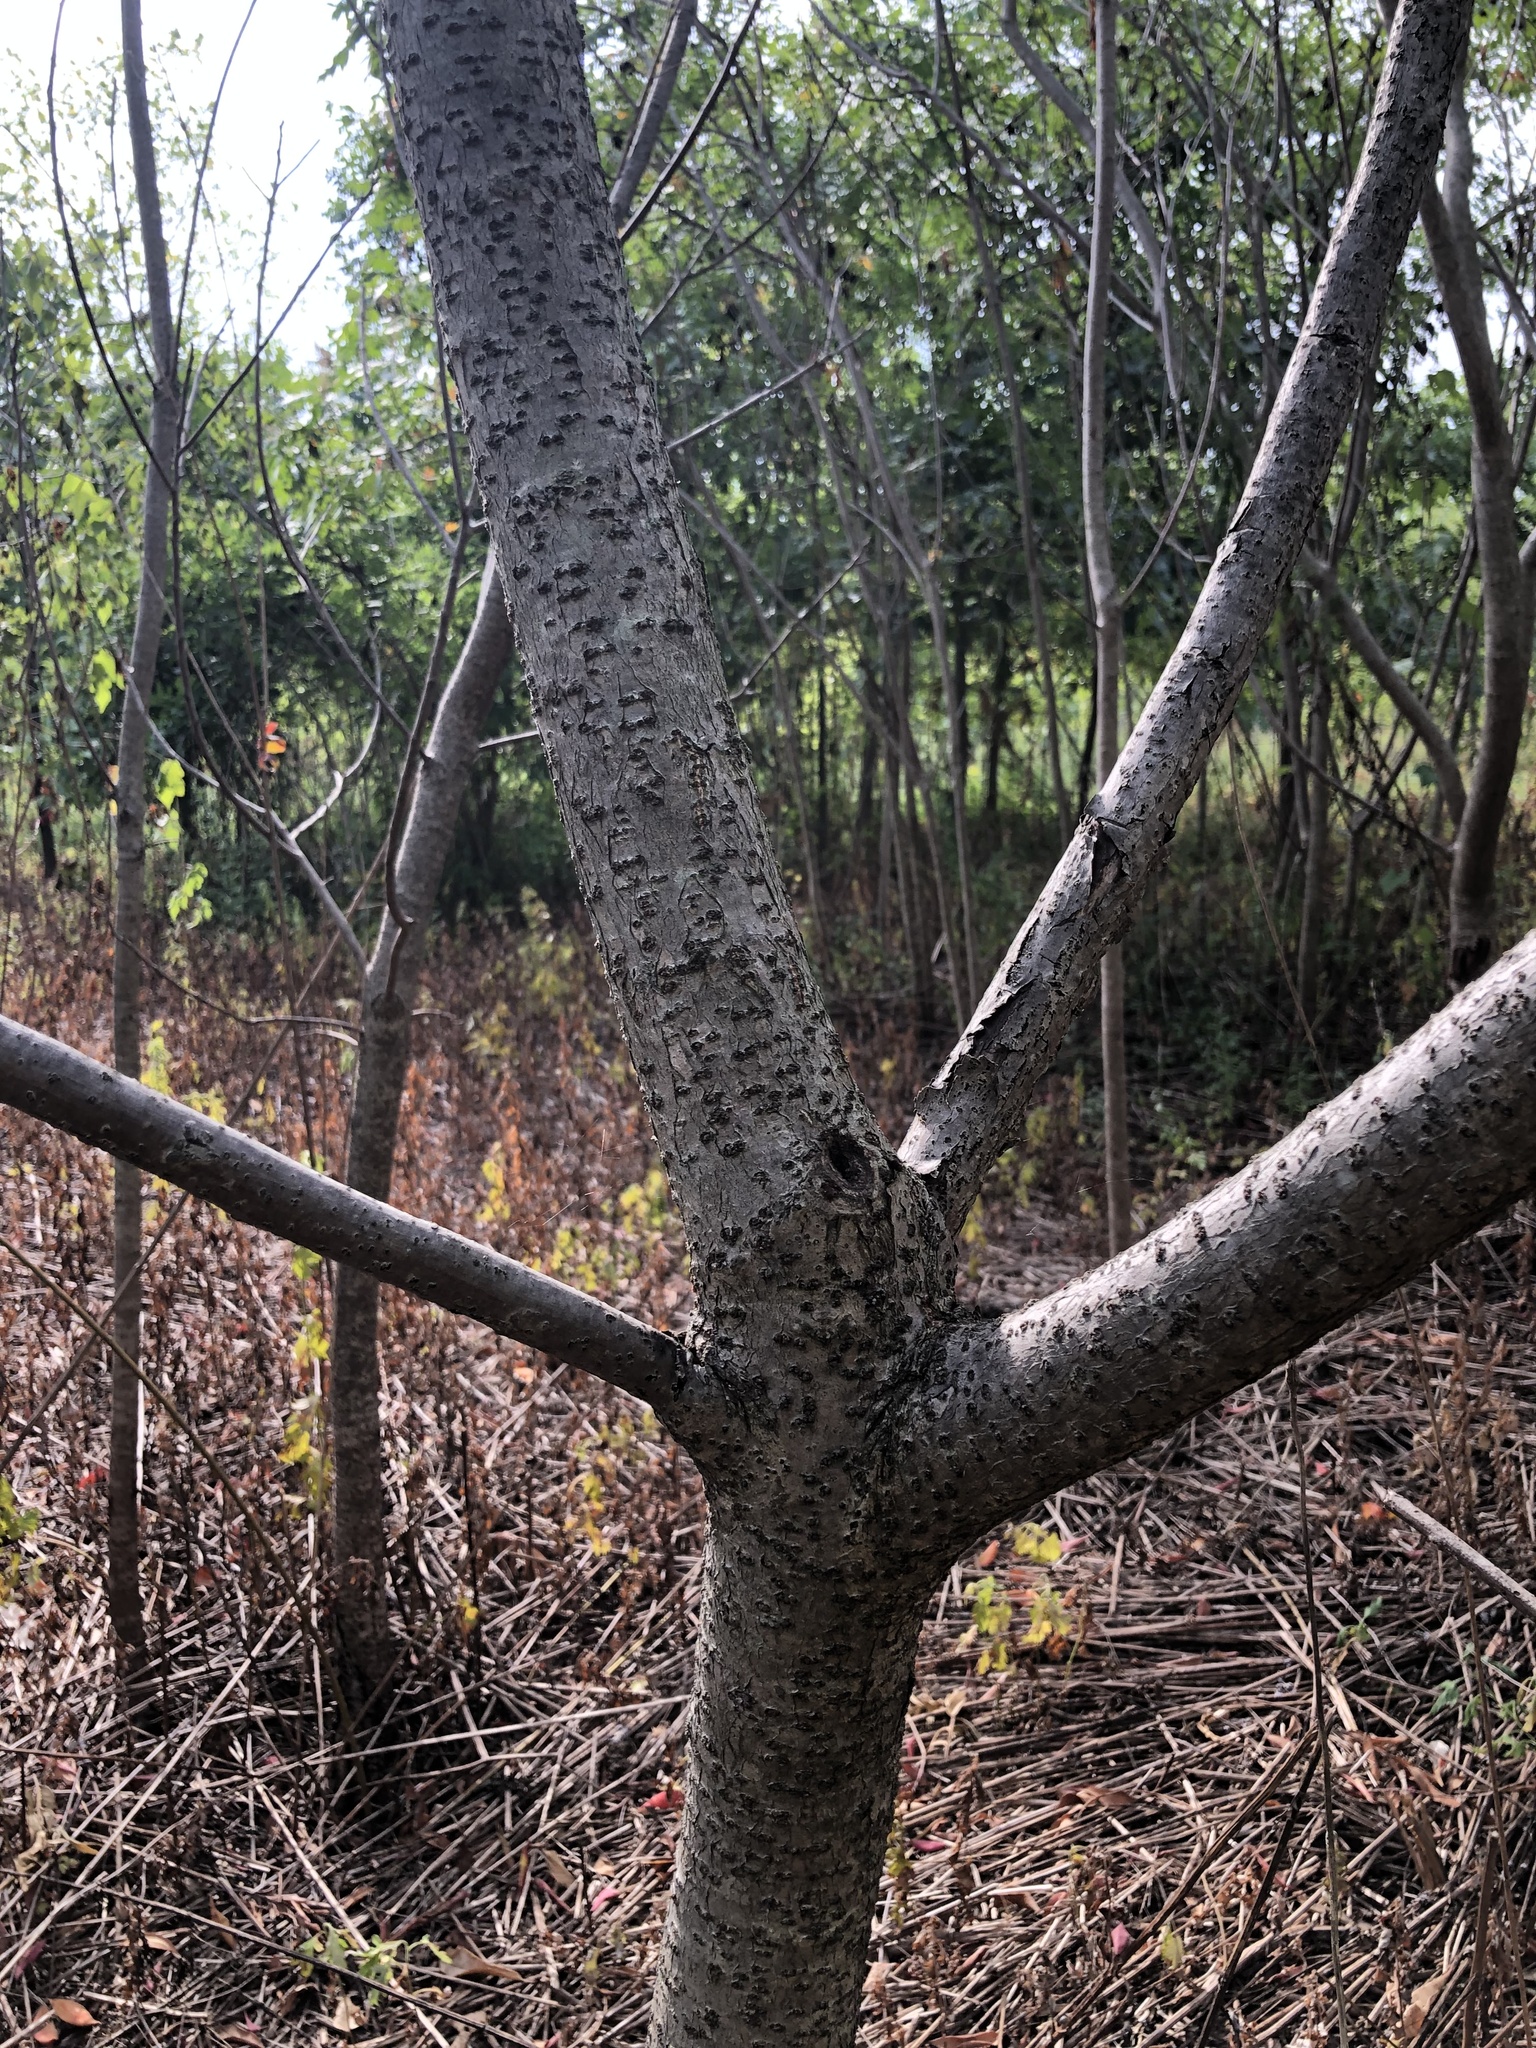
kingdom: Plantae
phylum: Tracheophyta
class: Magnoliopsida
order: Sapindales
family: Anacardiaceae
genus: Rhus
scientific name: Rhus copallina
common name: Shining sumac
